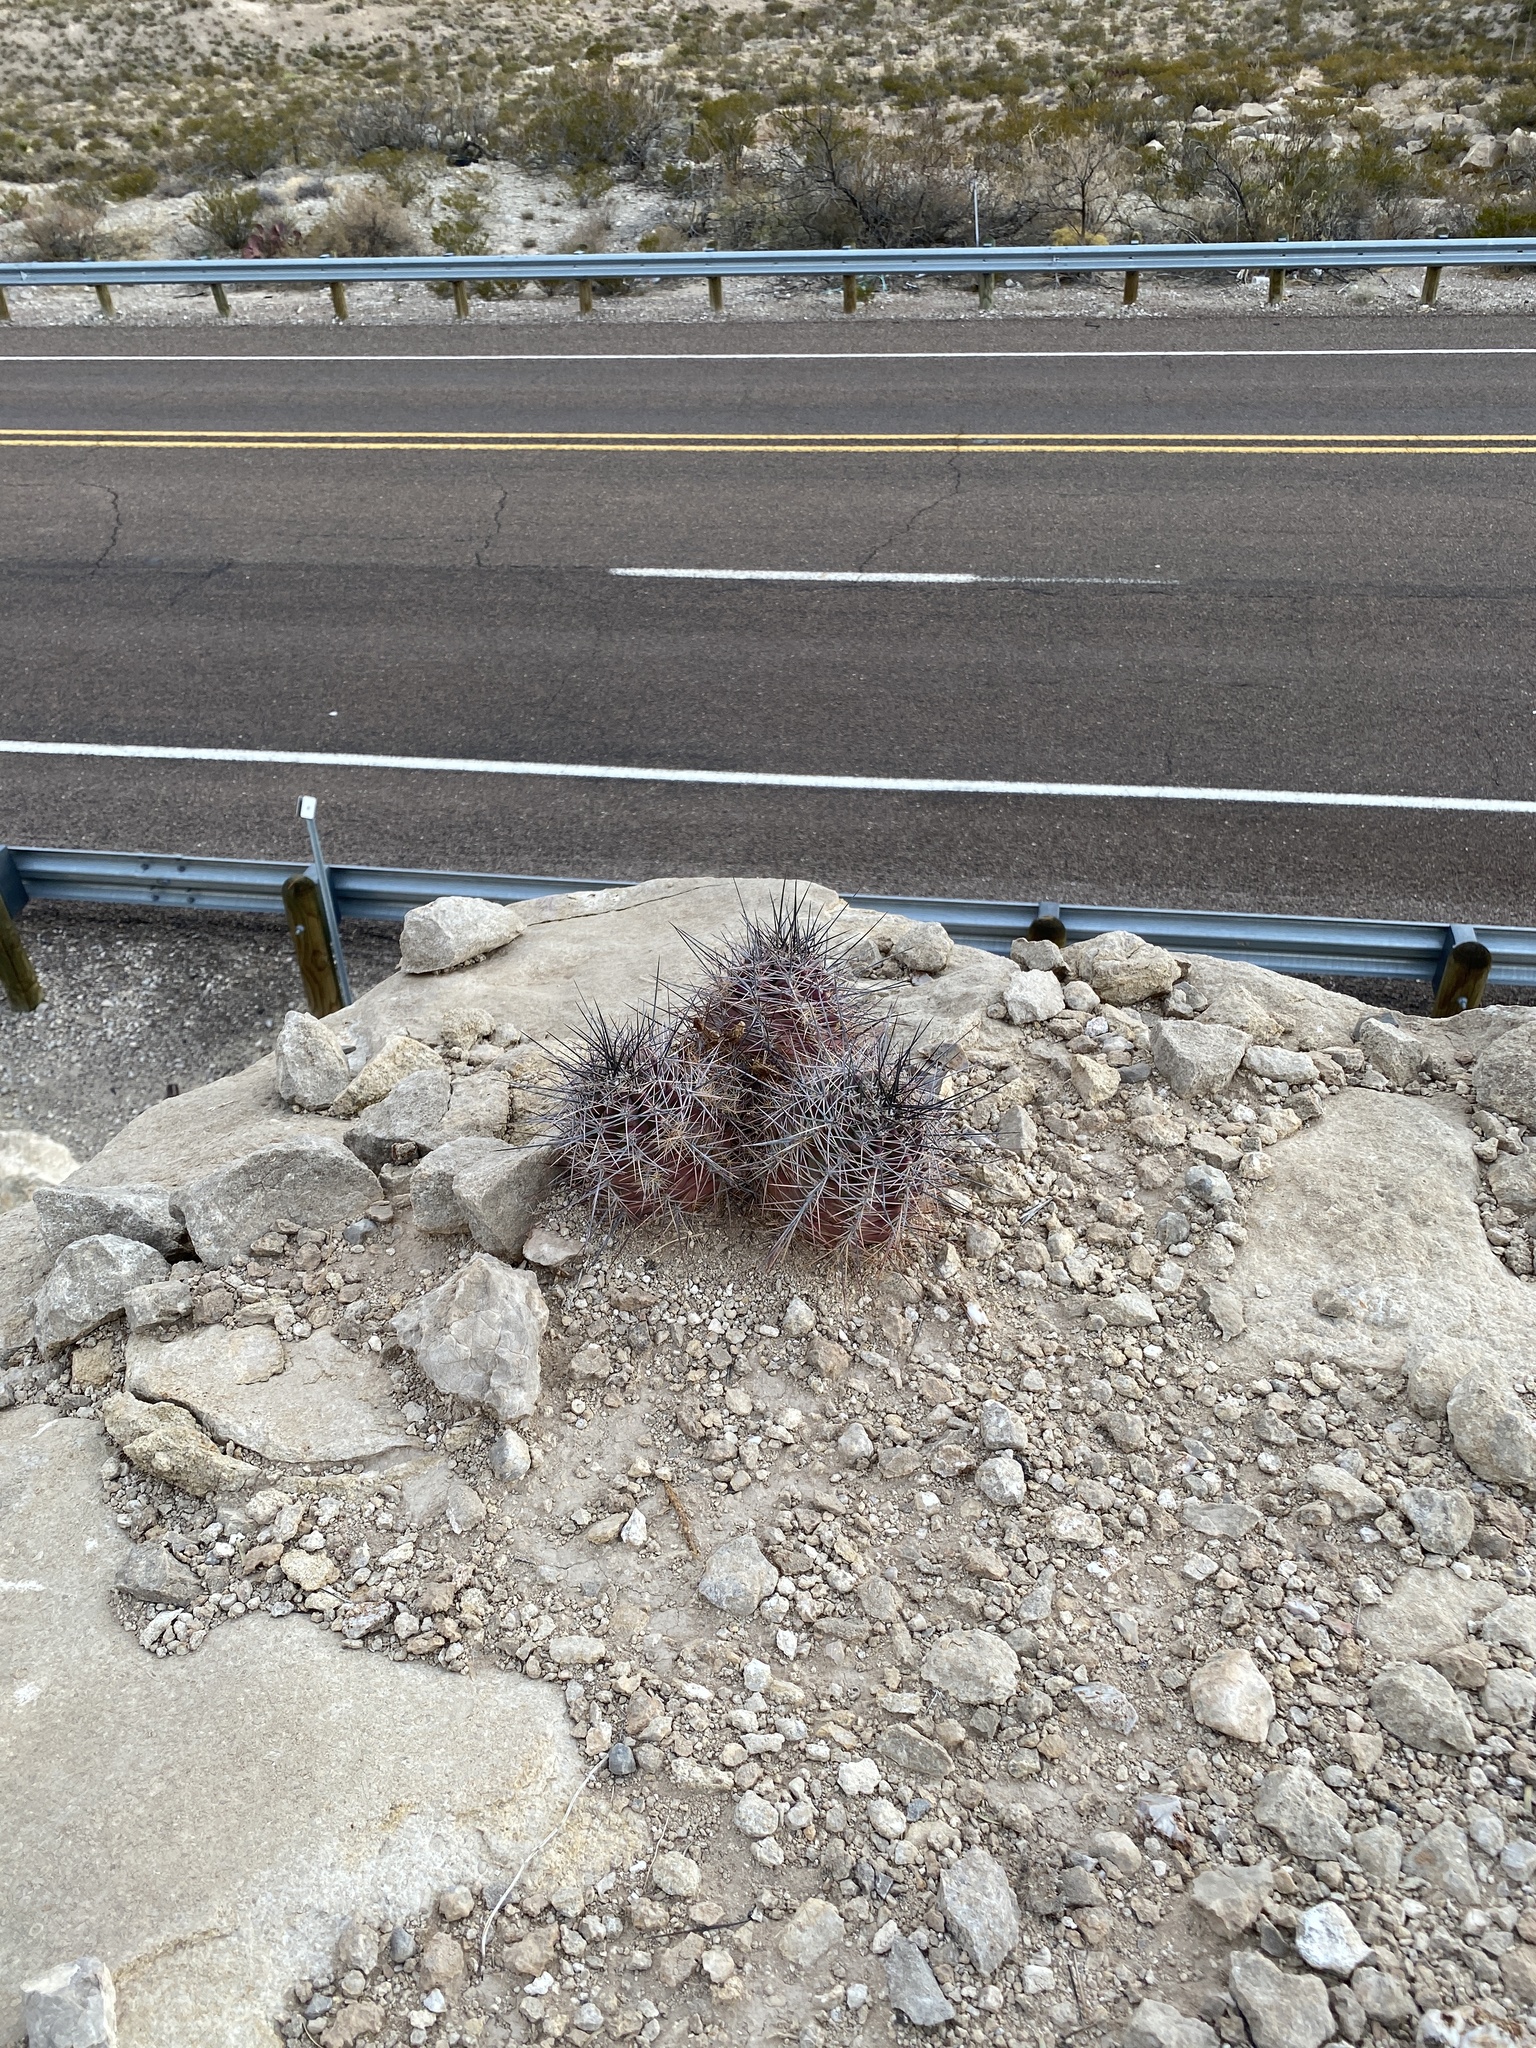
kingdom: Plantae
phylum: Tracheophyta
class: Magnoliopsida
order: Caryophyllales
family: Cactaceae
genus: Echinocereus
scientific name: Echinocereus coccineus
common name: Scarlet hedgehog cactus
